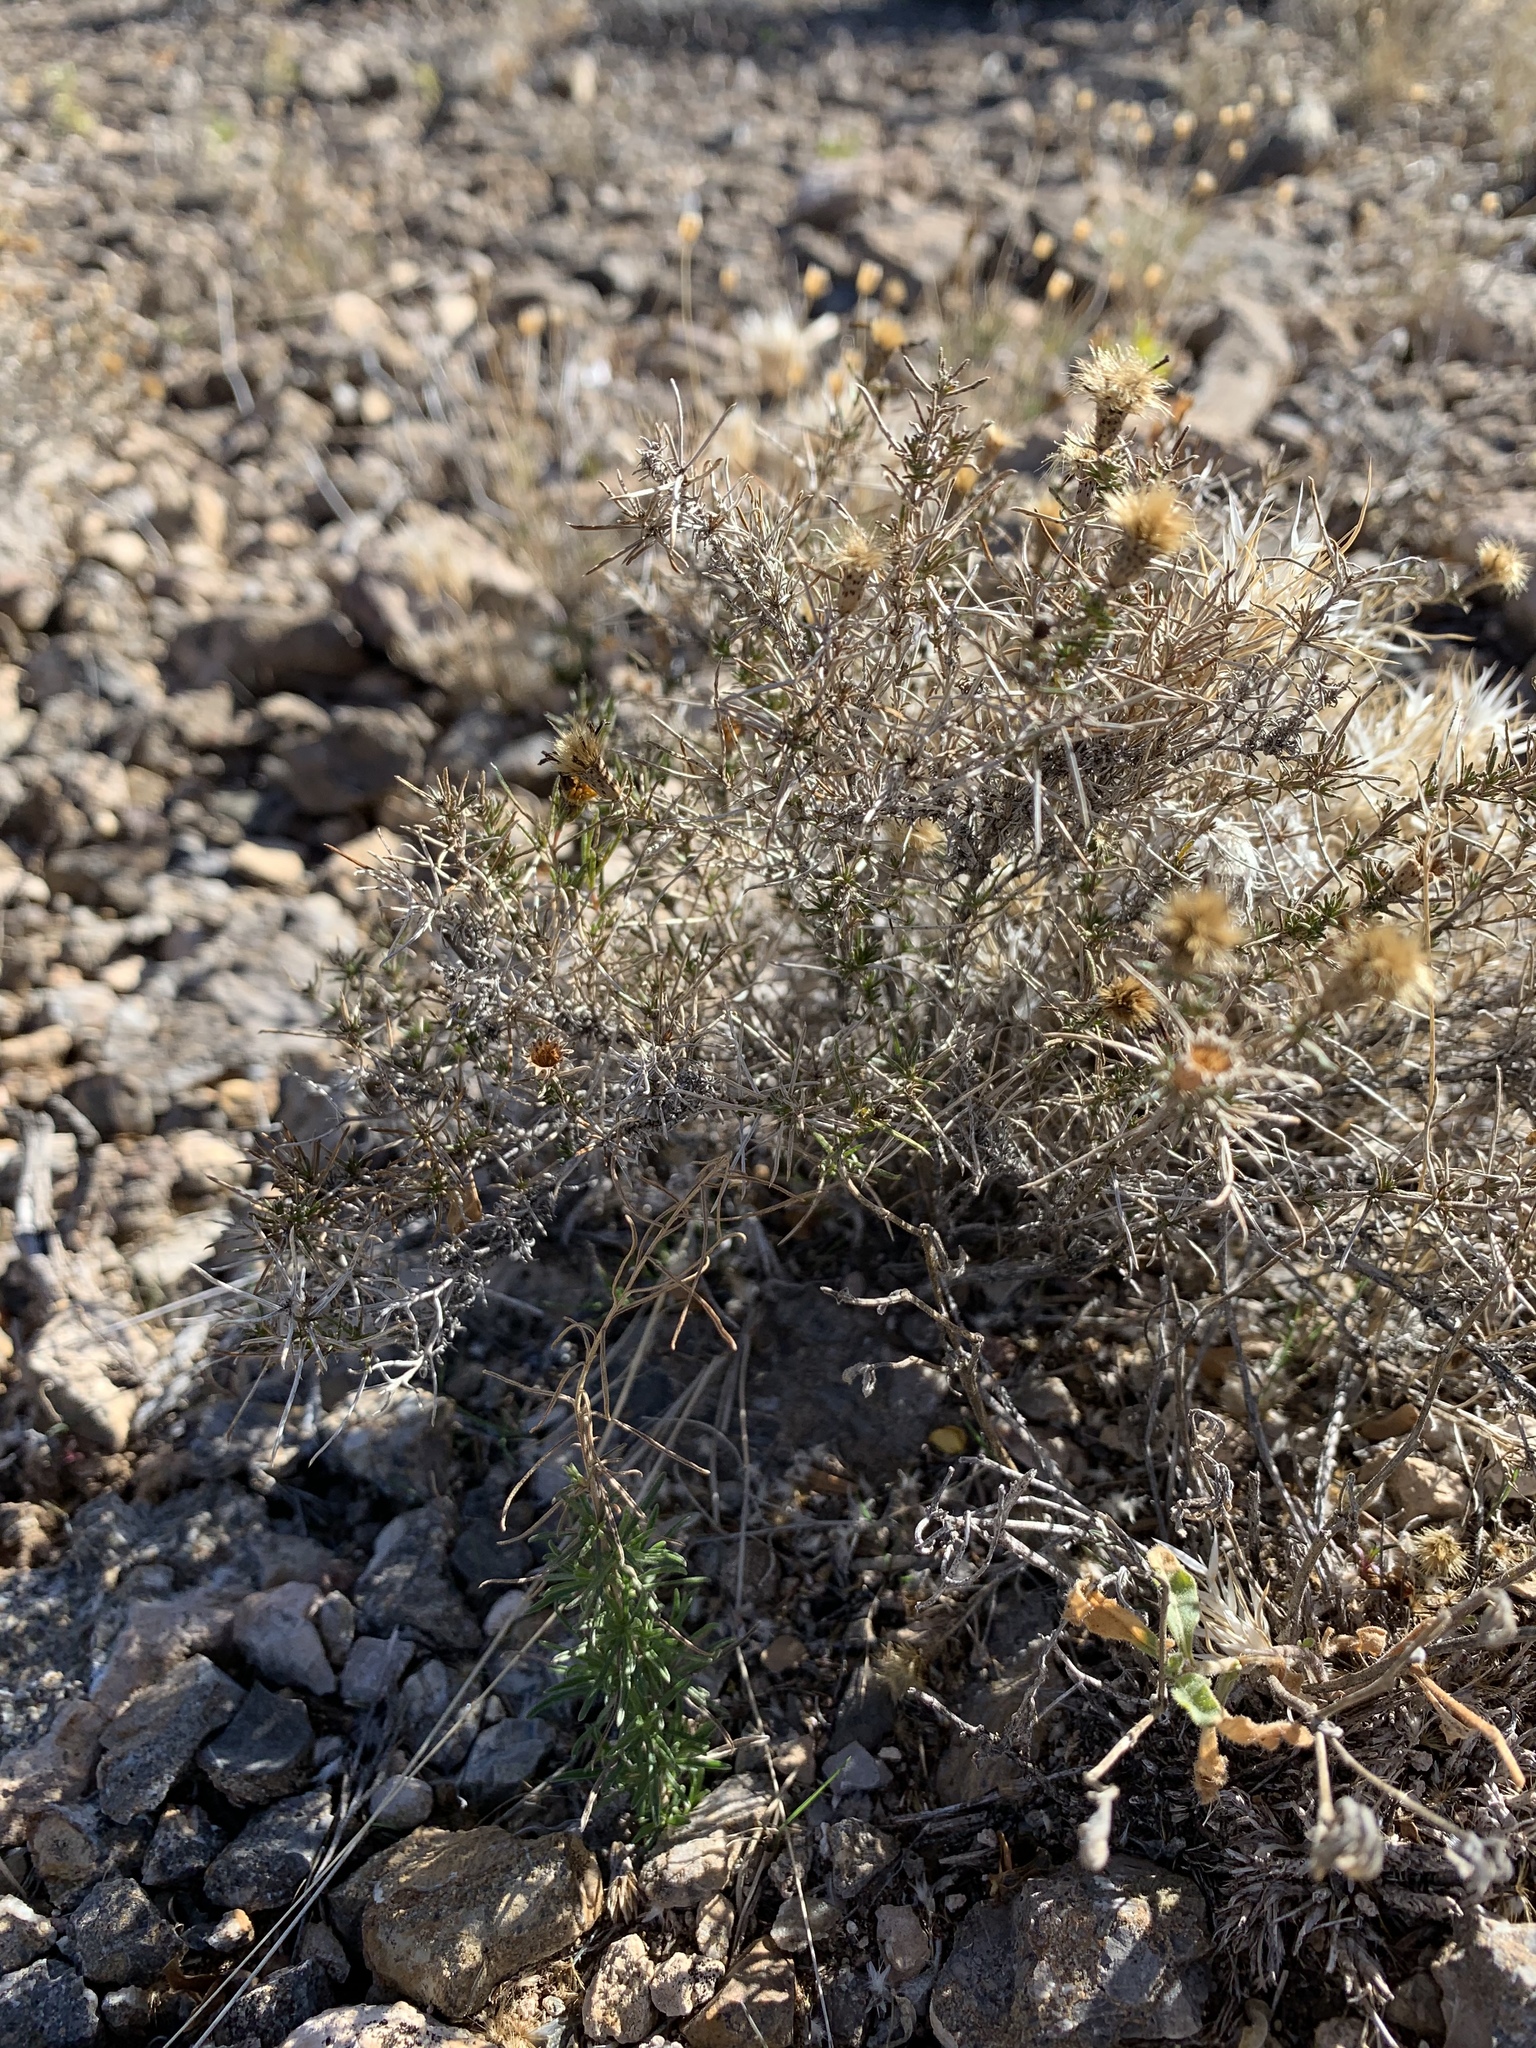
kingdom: Plantae
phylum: Tracheophyta
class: Magnoliopsida
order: Asterales
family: Asteraceae
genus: Thymophylla
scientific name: Thymophylla acerosa
